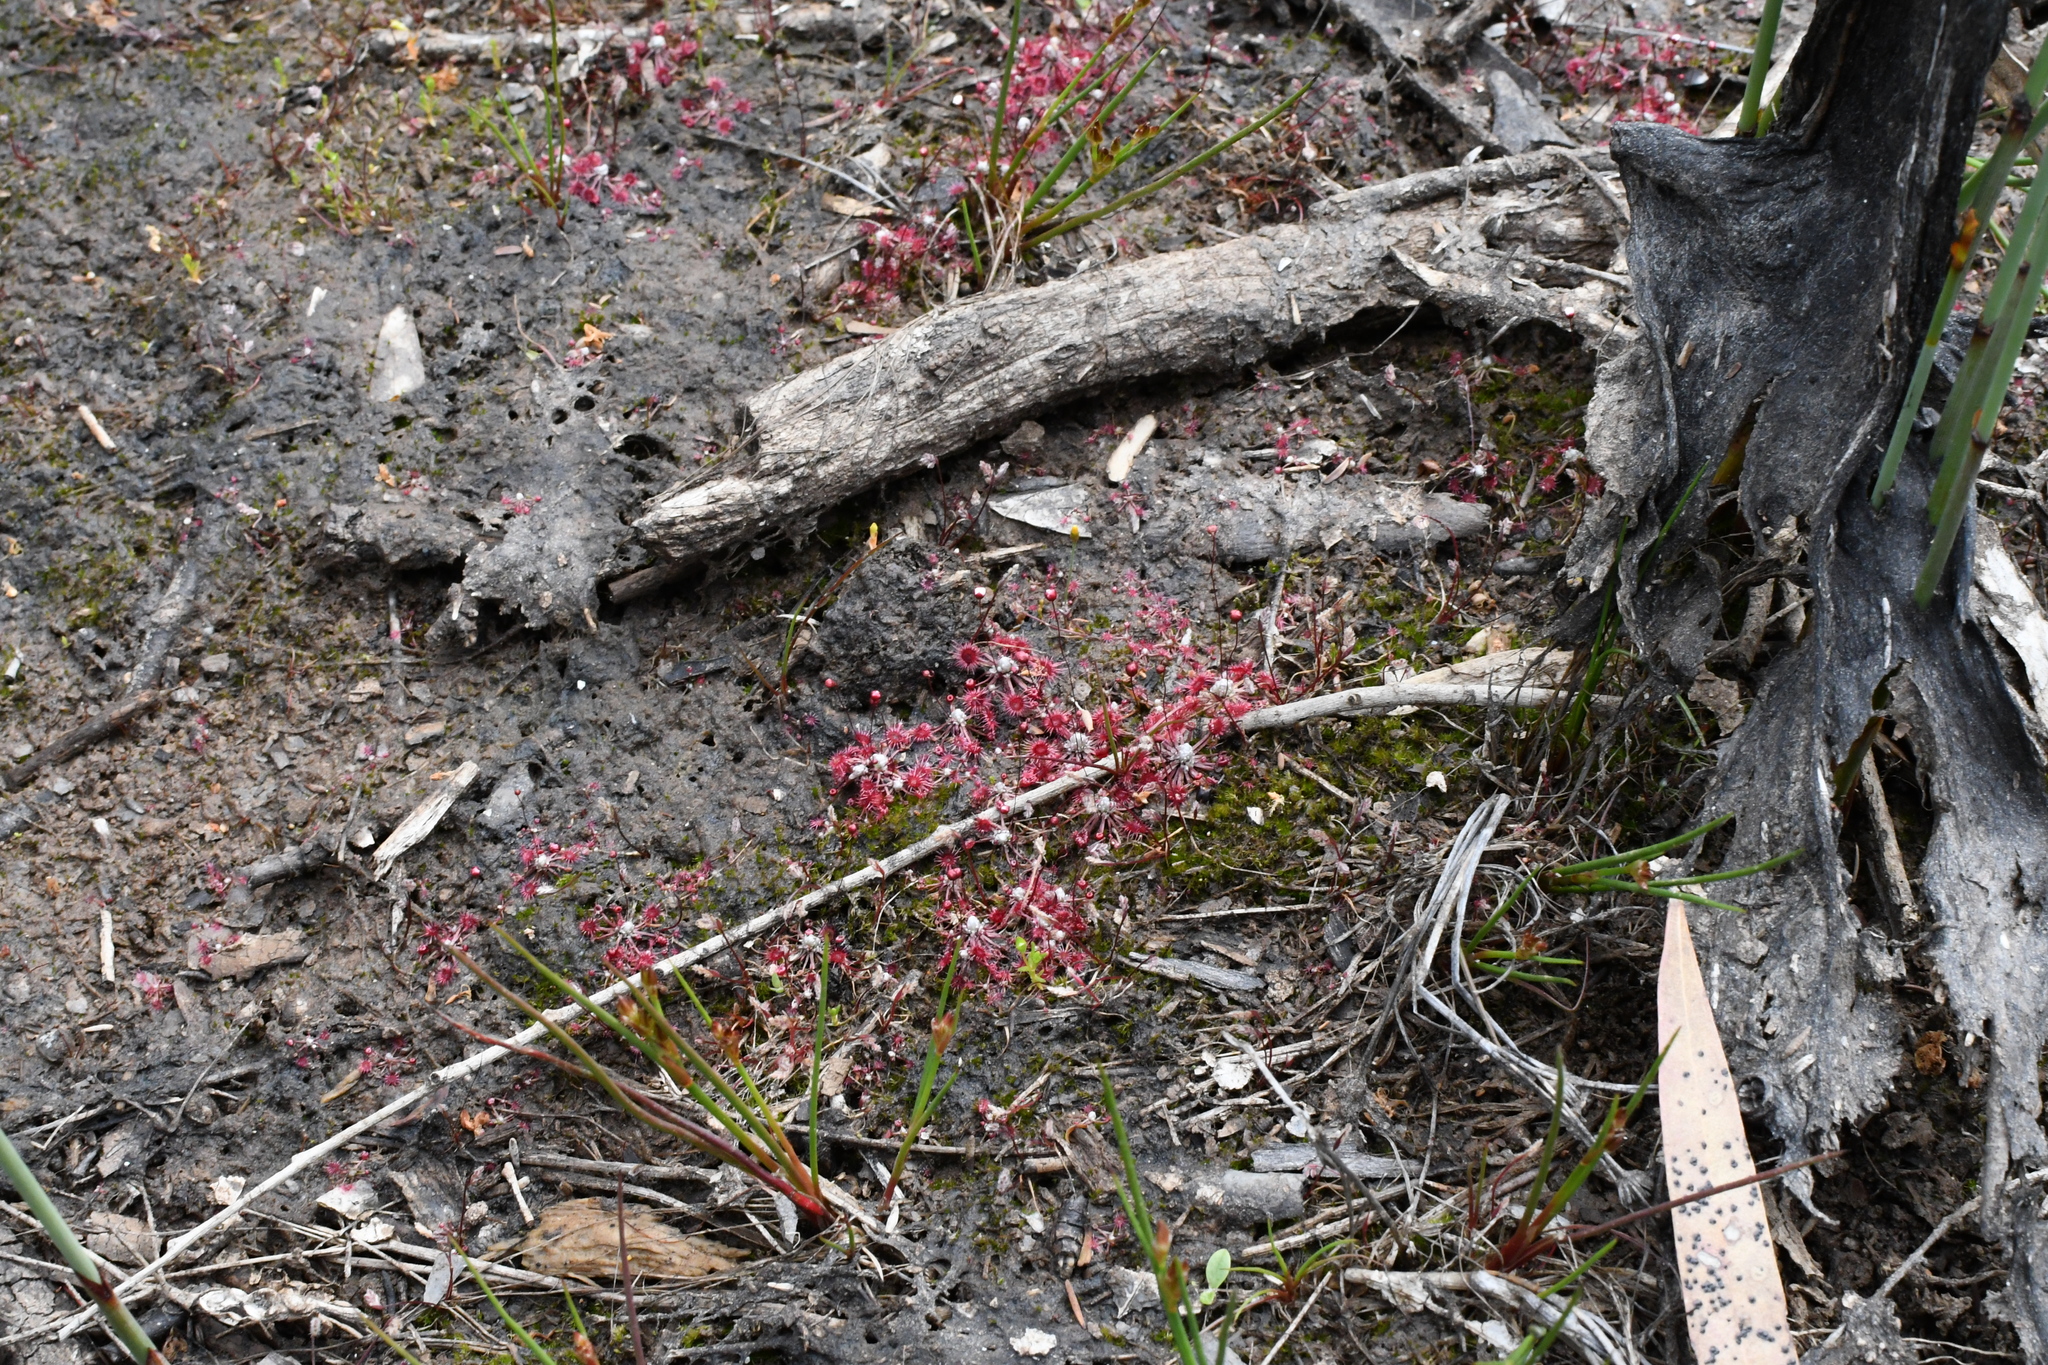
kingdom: Plantae
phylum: Tracheophyta
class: Magnoliopsida
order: Caryophyllales
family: Droseraceae
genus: Drosera
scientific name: Drosera pygmaea
